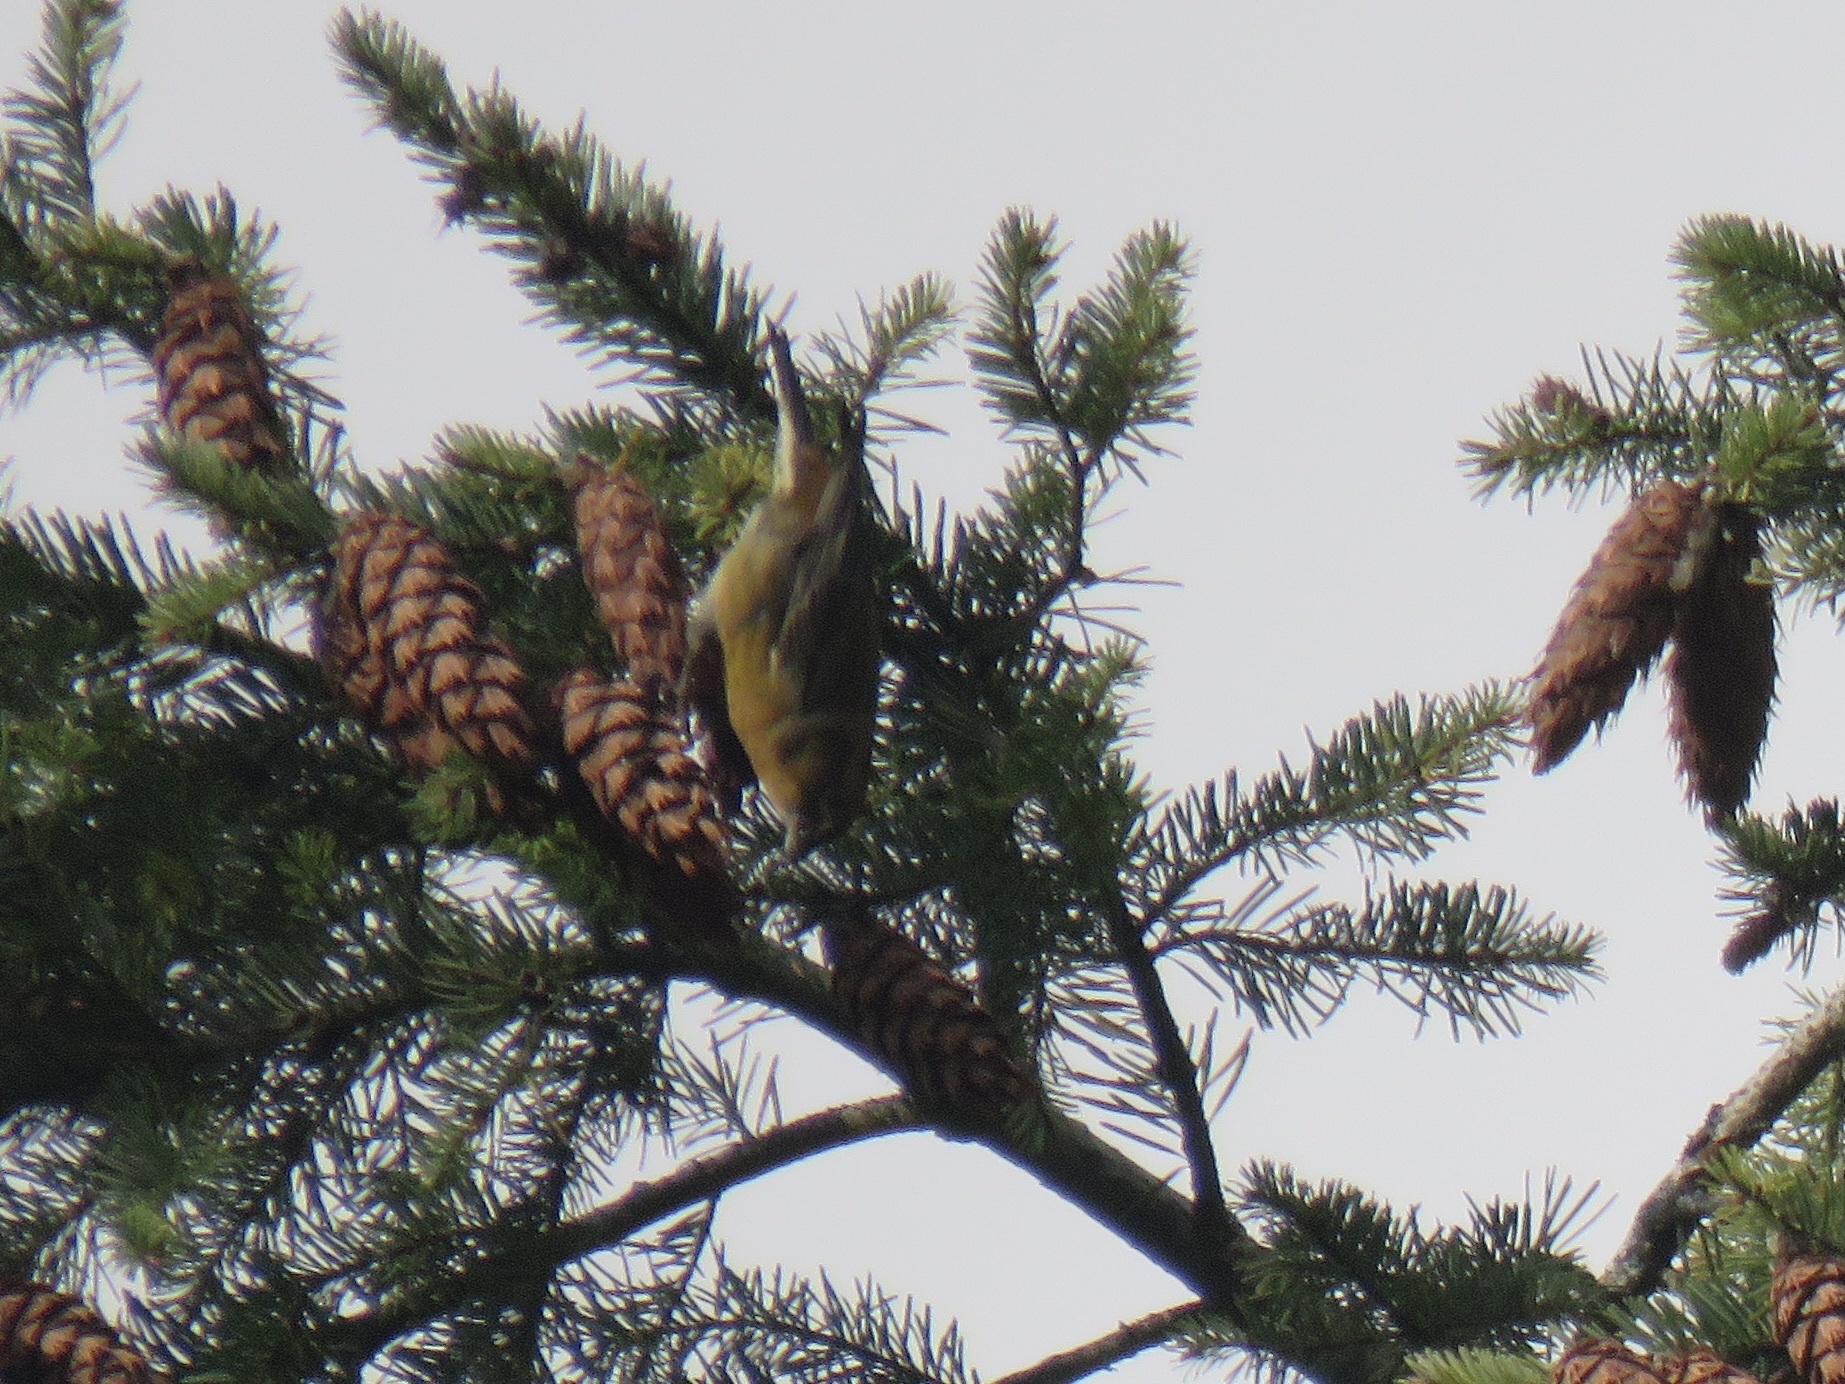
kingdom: Animalia
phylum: Chordata
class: Aves
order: Passeriformes
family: Fringillidae
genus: Loxia
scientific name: Loxia curvirostra
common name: Red crossbill
